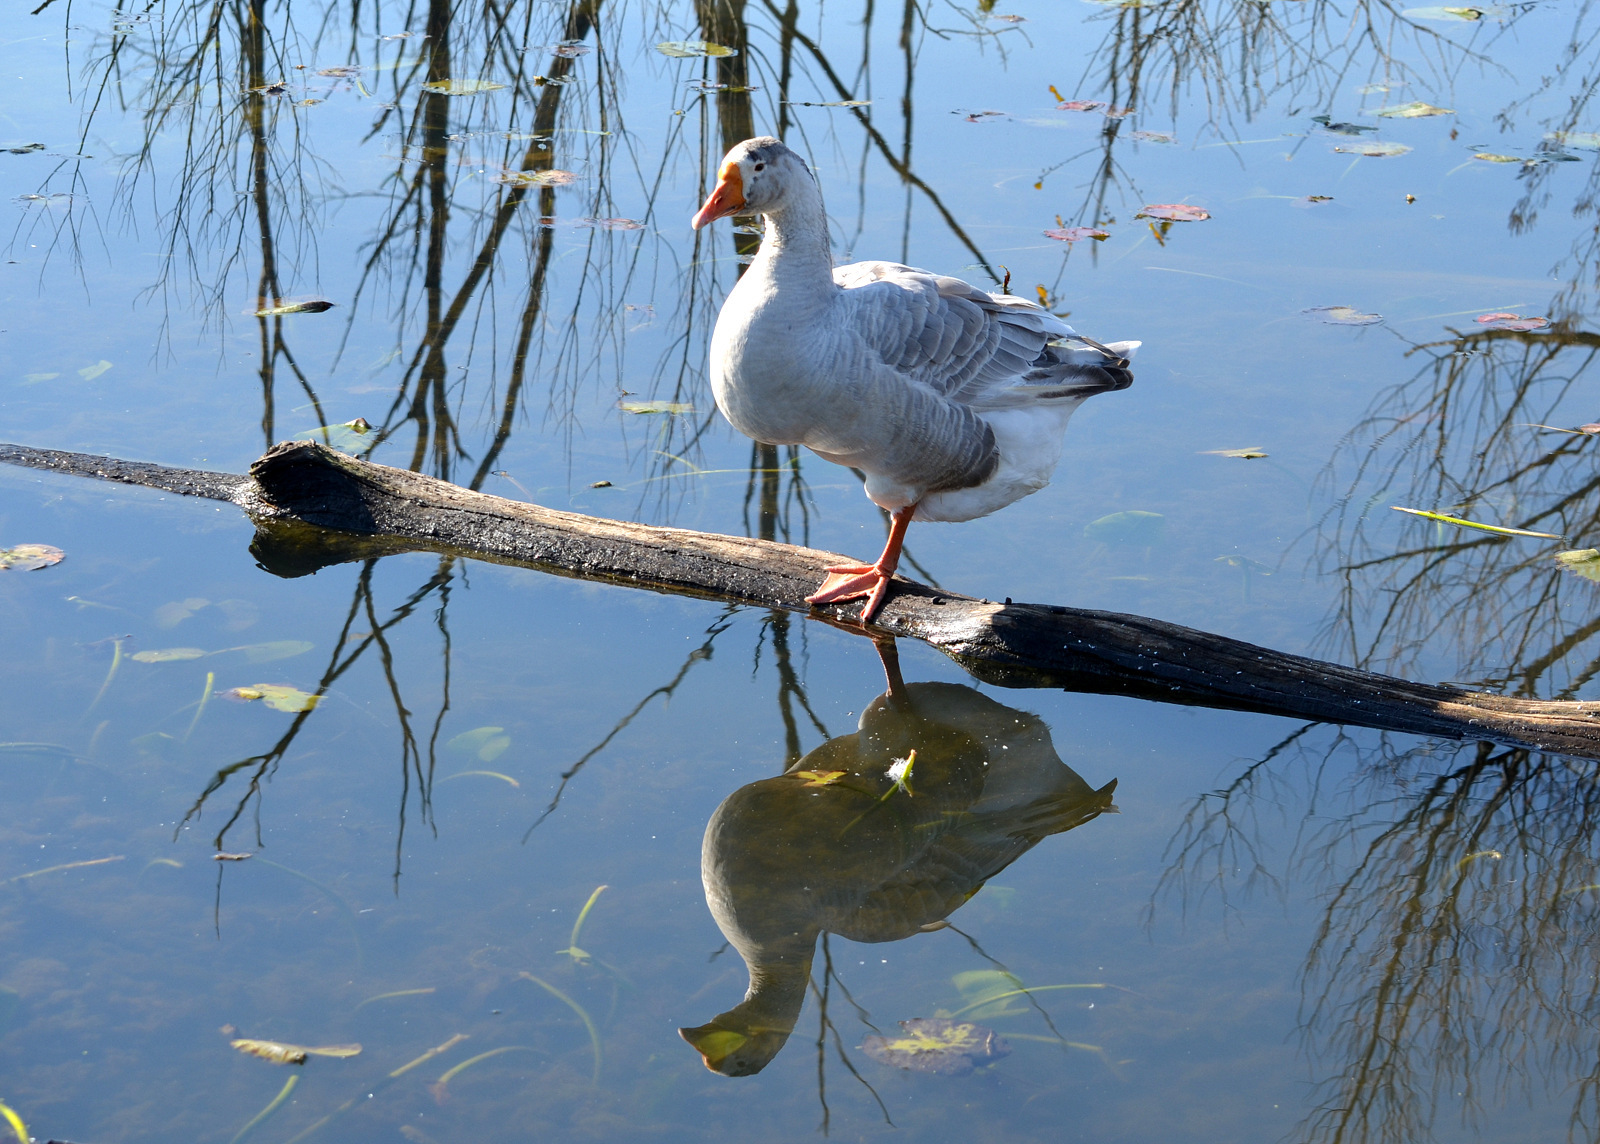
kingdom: Animalia
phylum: Chordata
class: Aves
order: Anseriformes
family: Anatidae
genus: Anser
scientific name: Anser
